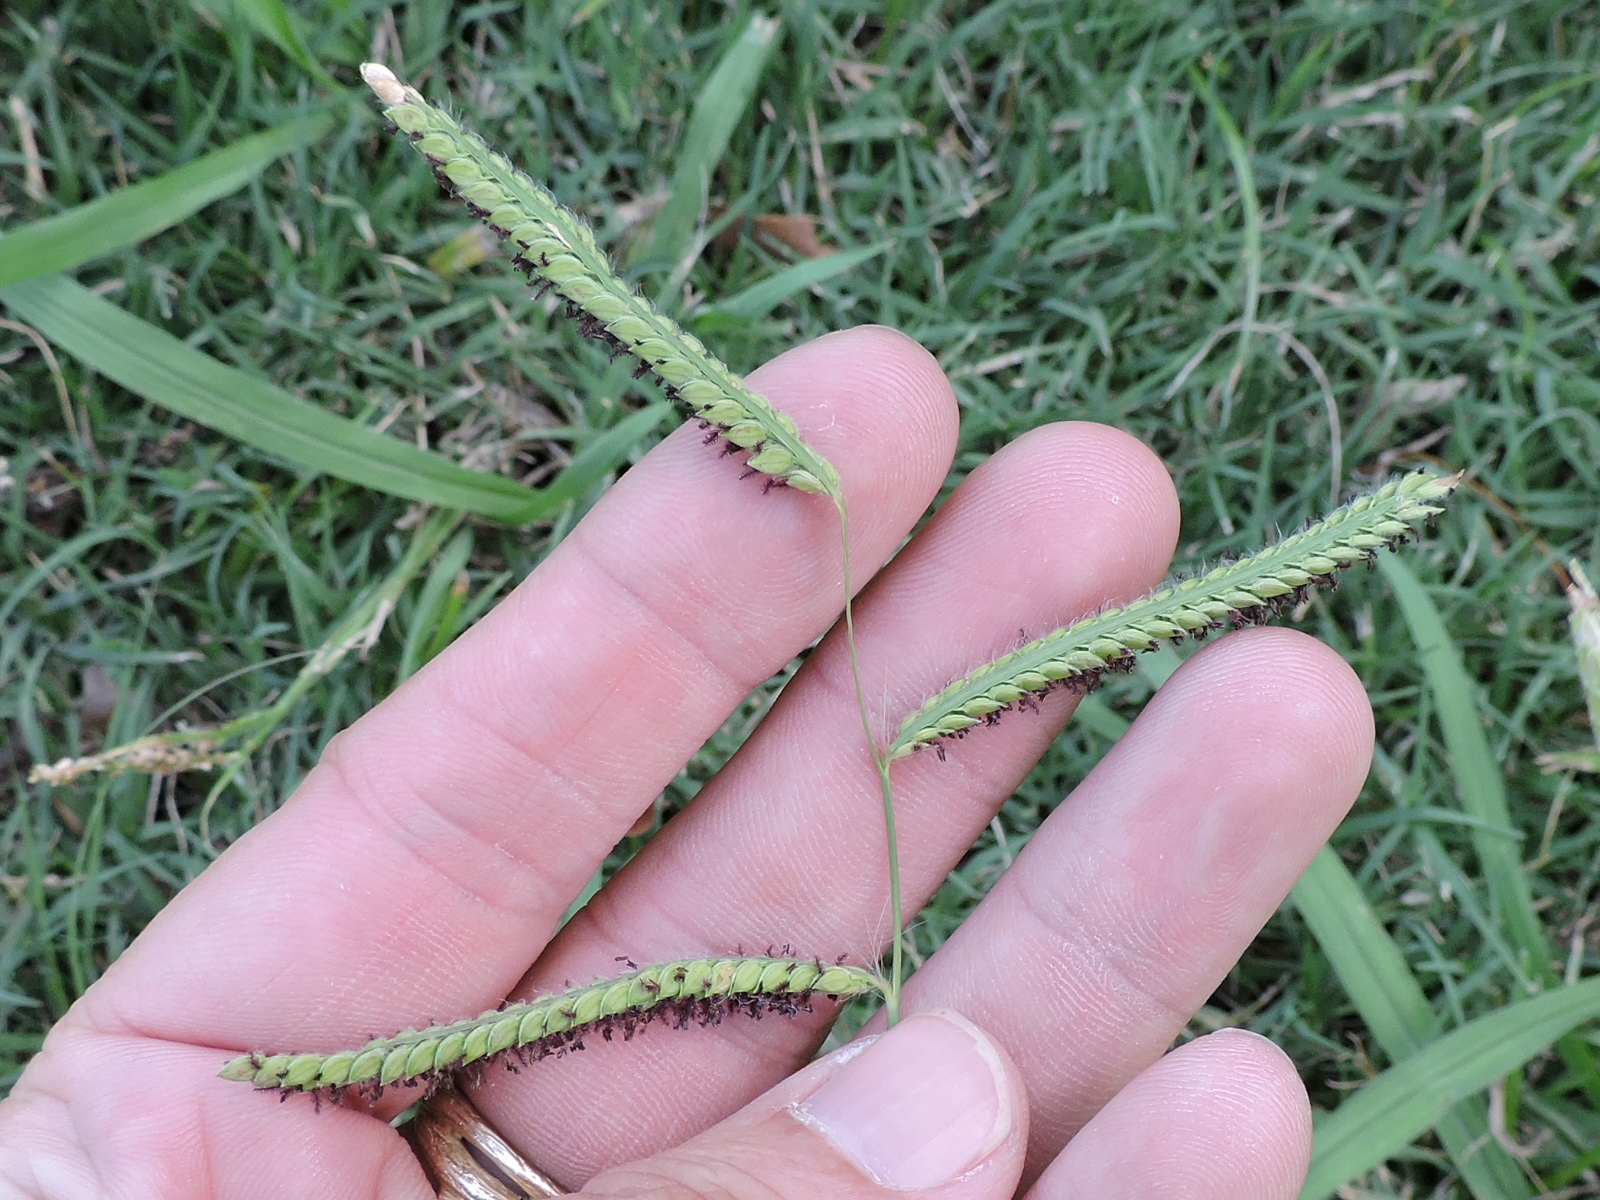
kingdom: Plantae
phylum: Tracheophyta
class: Liliopsida
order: Poales
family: Poaceae
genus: Paspalum
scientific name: Paspalum dilatatum
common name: Dallisgrass
